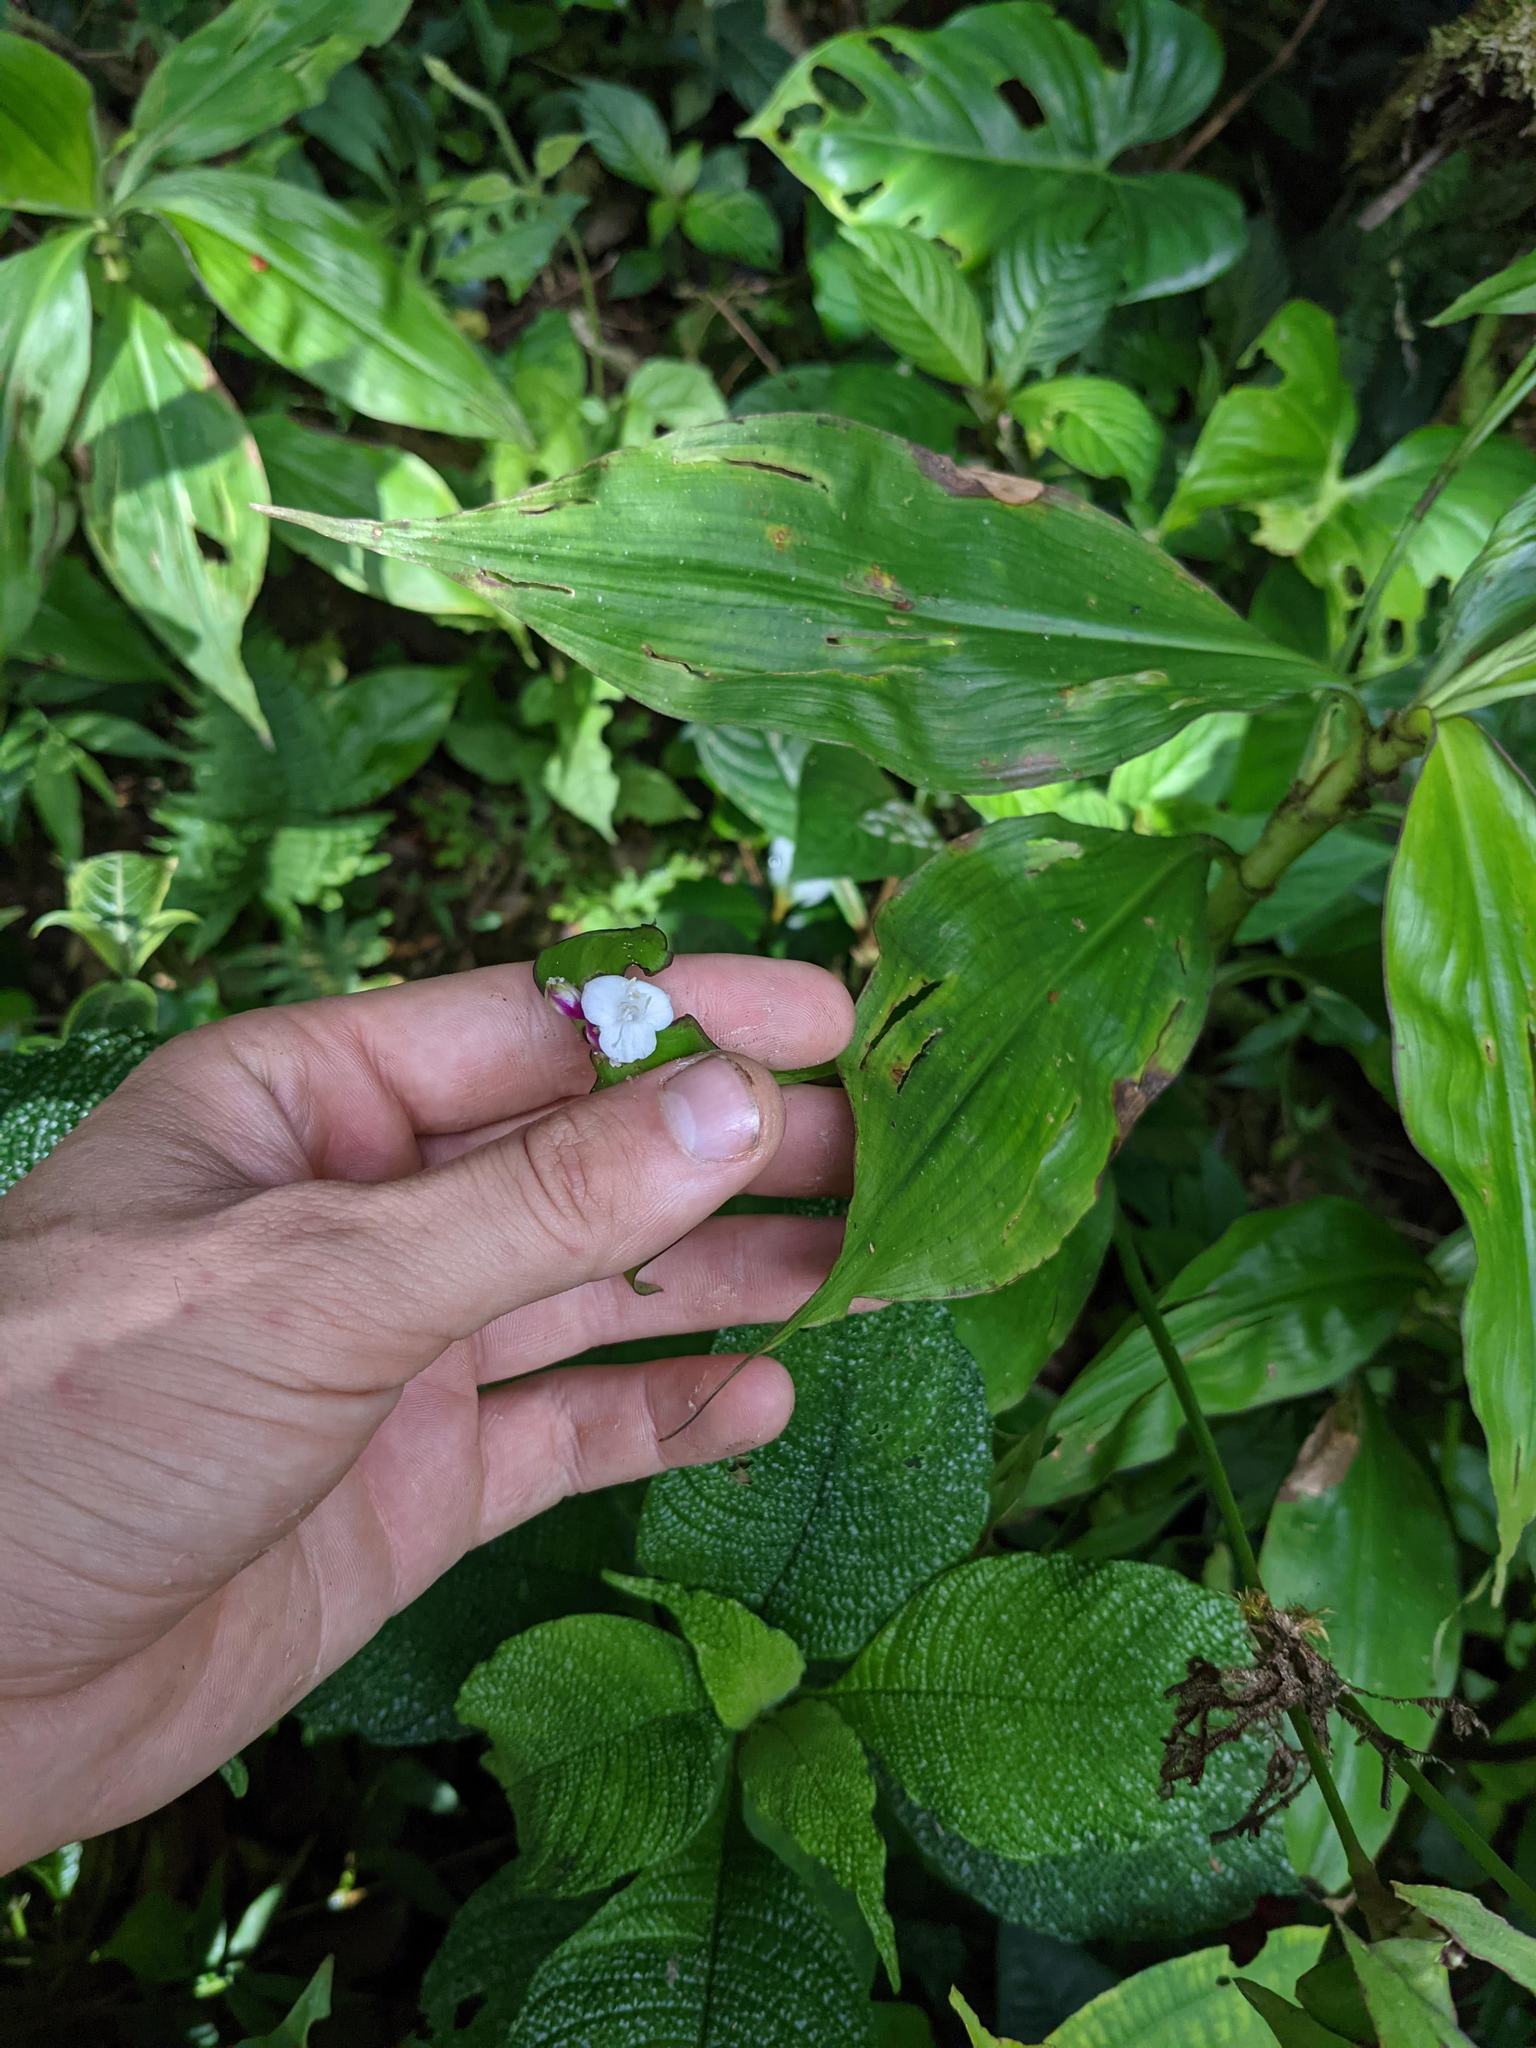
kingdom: Plantae
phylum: Tracheophyta
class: Liliopsida
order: Commelinales
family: Commelinaceae
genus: Tradescantia
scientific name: Tradescantia zanonia
